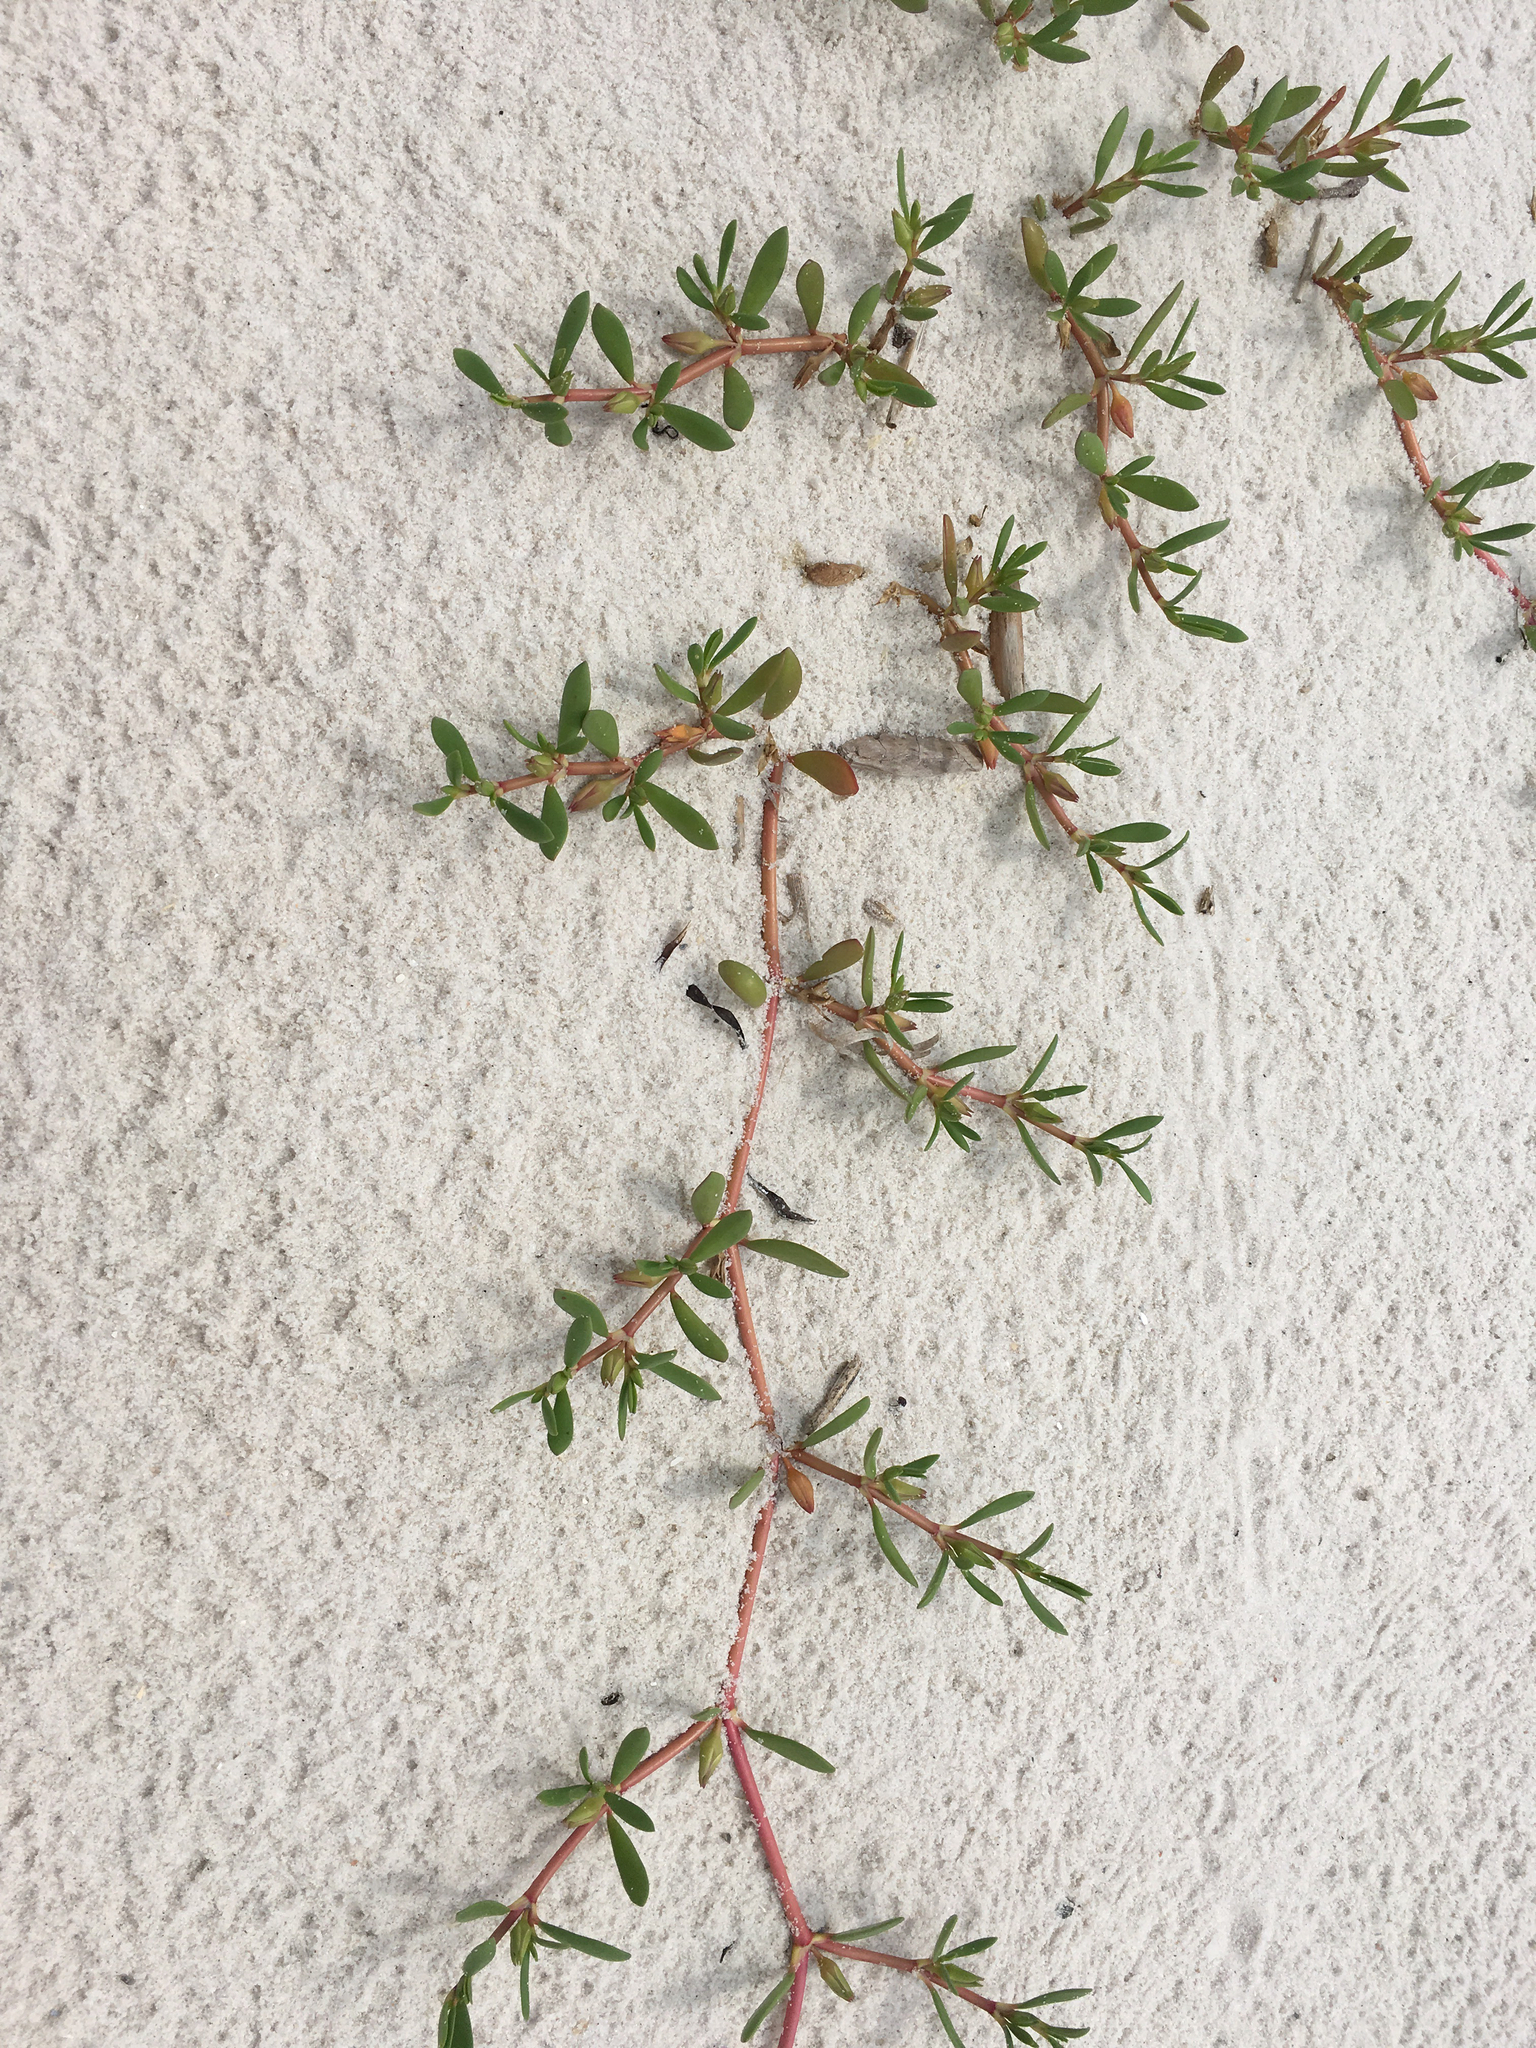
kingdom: Plantae
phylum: Tracheophyta
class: Magnoliopsida
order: Caryophyllales
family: Aizoaceae
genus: Sesuvium
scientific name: Sesuvium portulacastrum
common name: Sea-purslane
